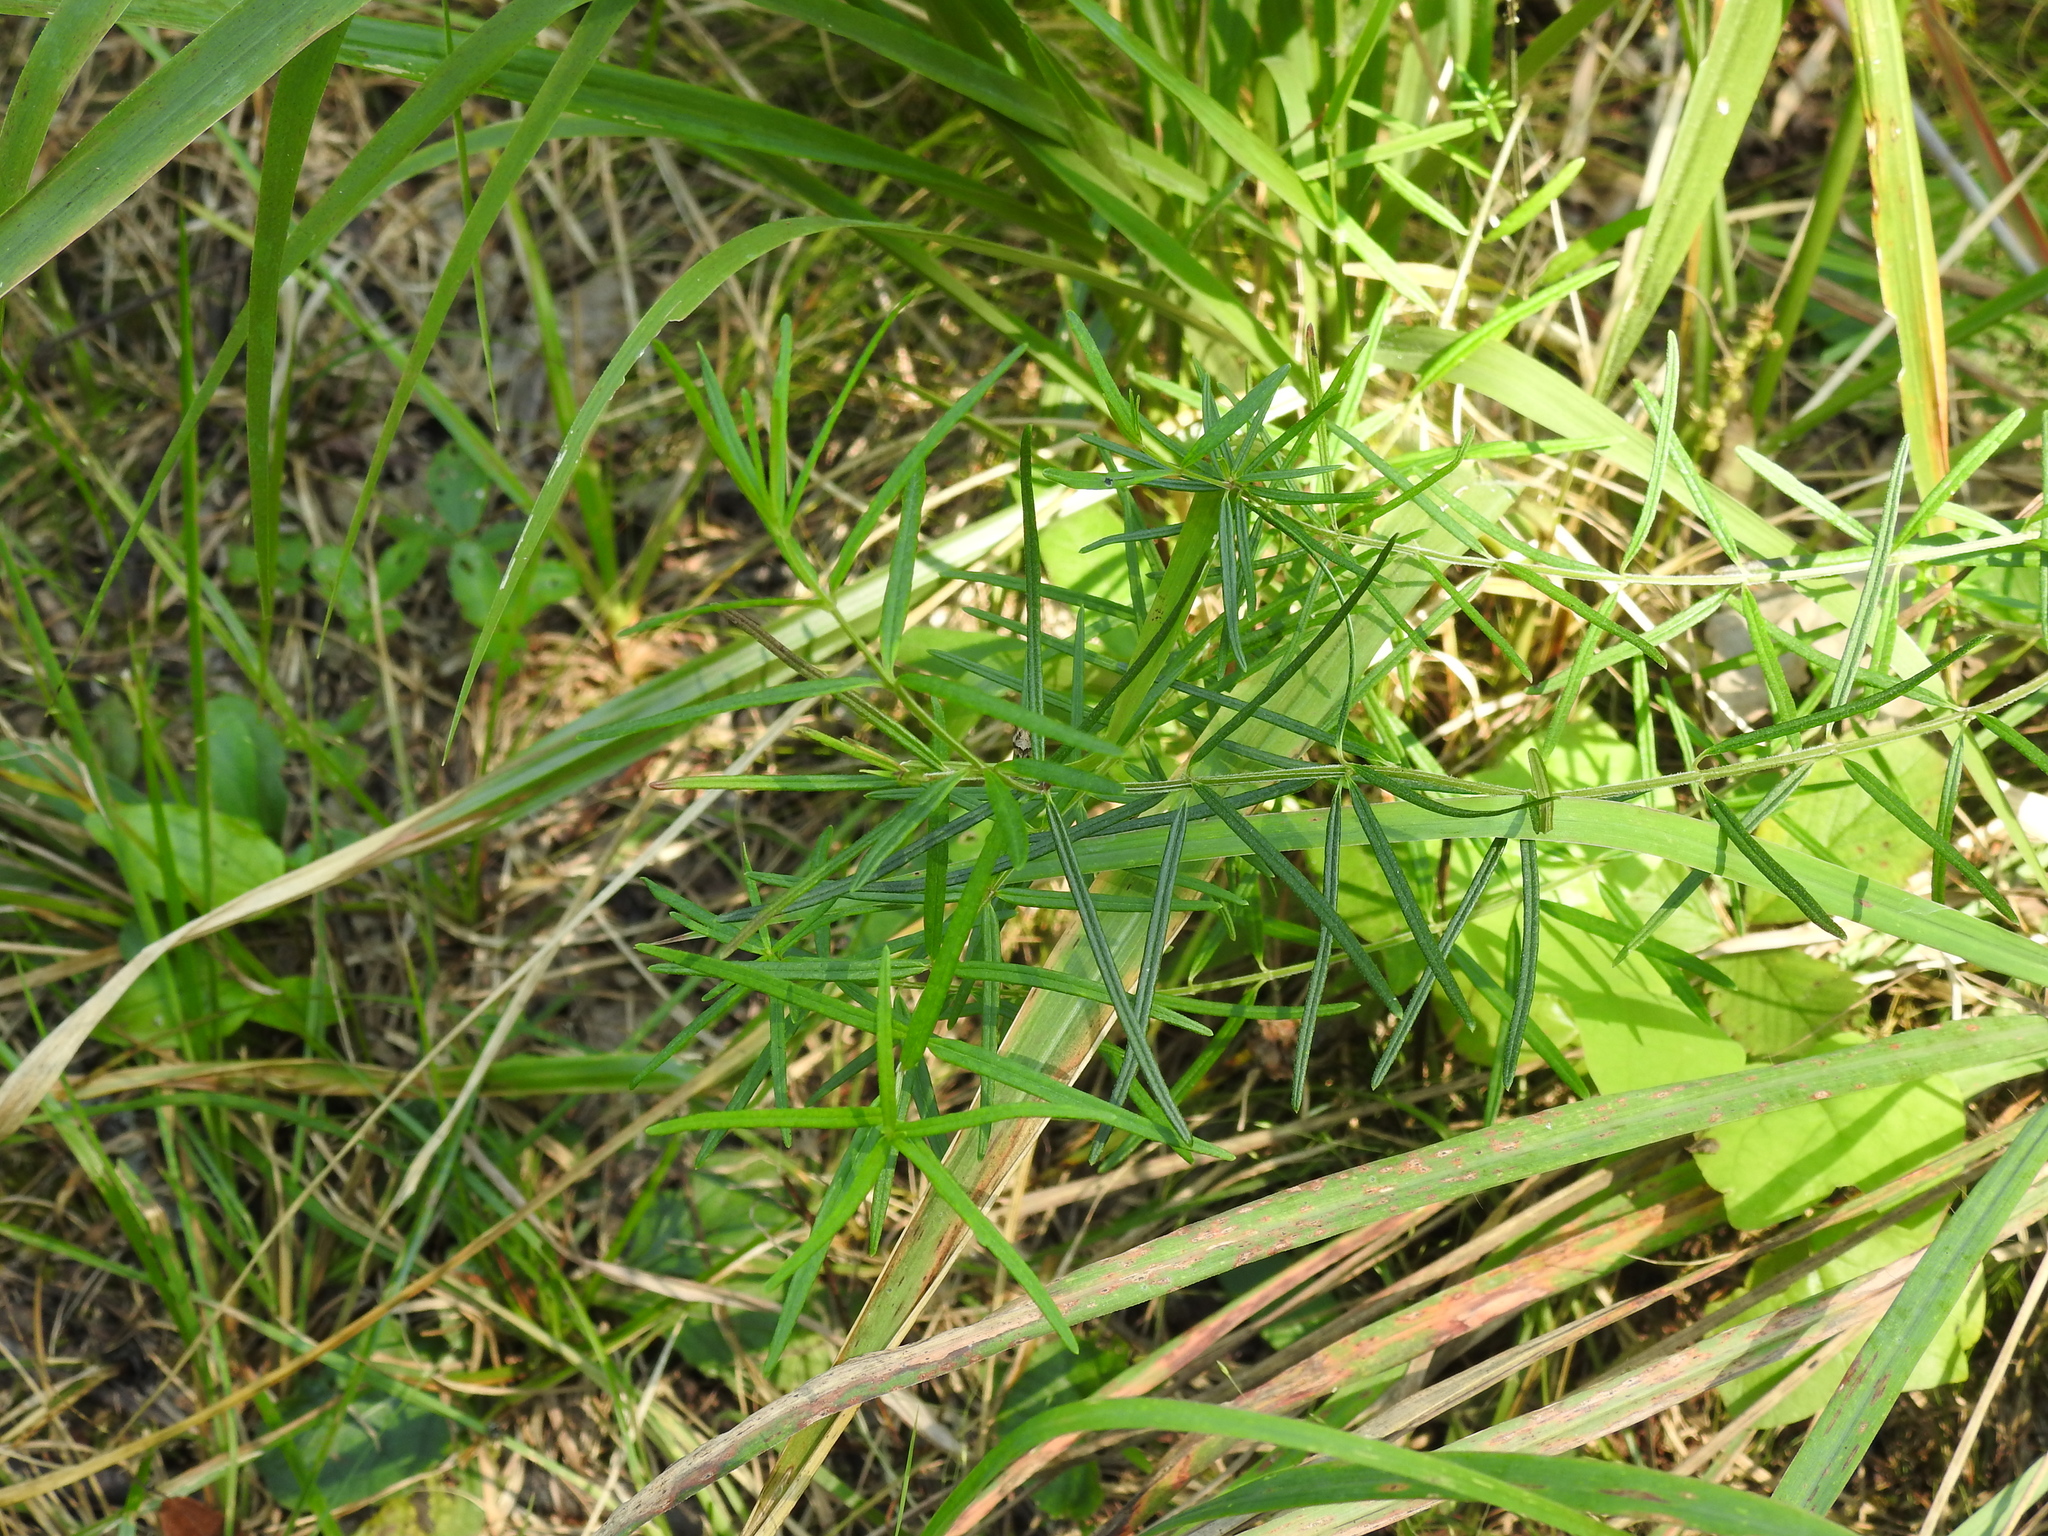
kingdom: Plantae
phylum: Tracheophyta
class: Magnoliopsida
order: Gentianales
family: Apocynaceae
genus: Asclepias
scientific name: Asclepias verticillata
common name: Eastern whorled milkweed
